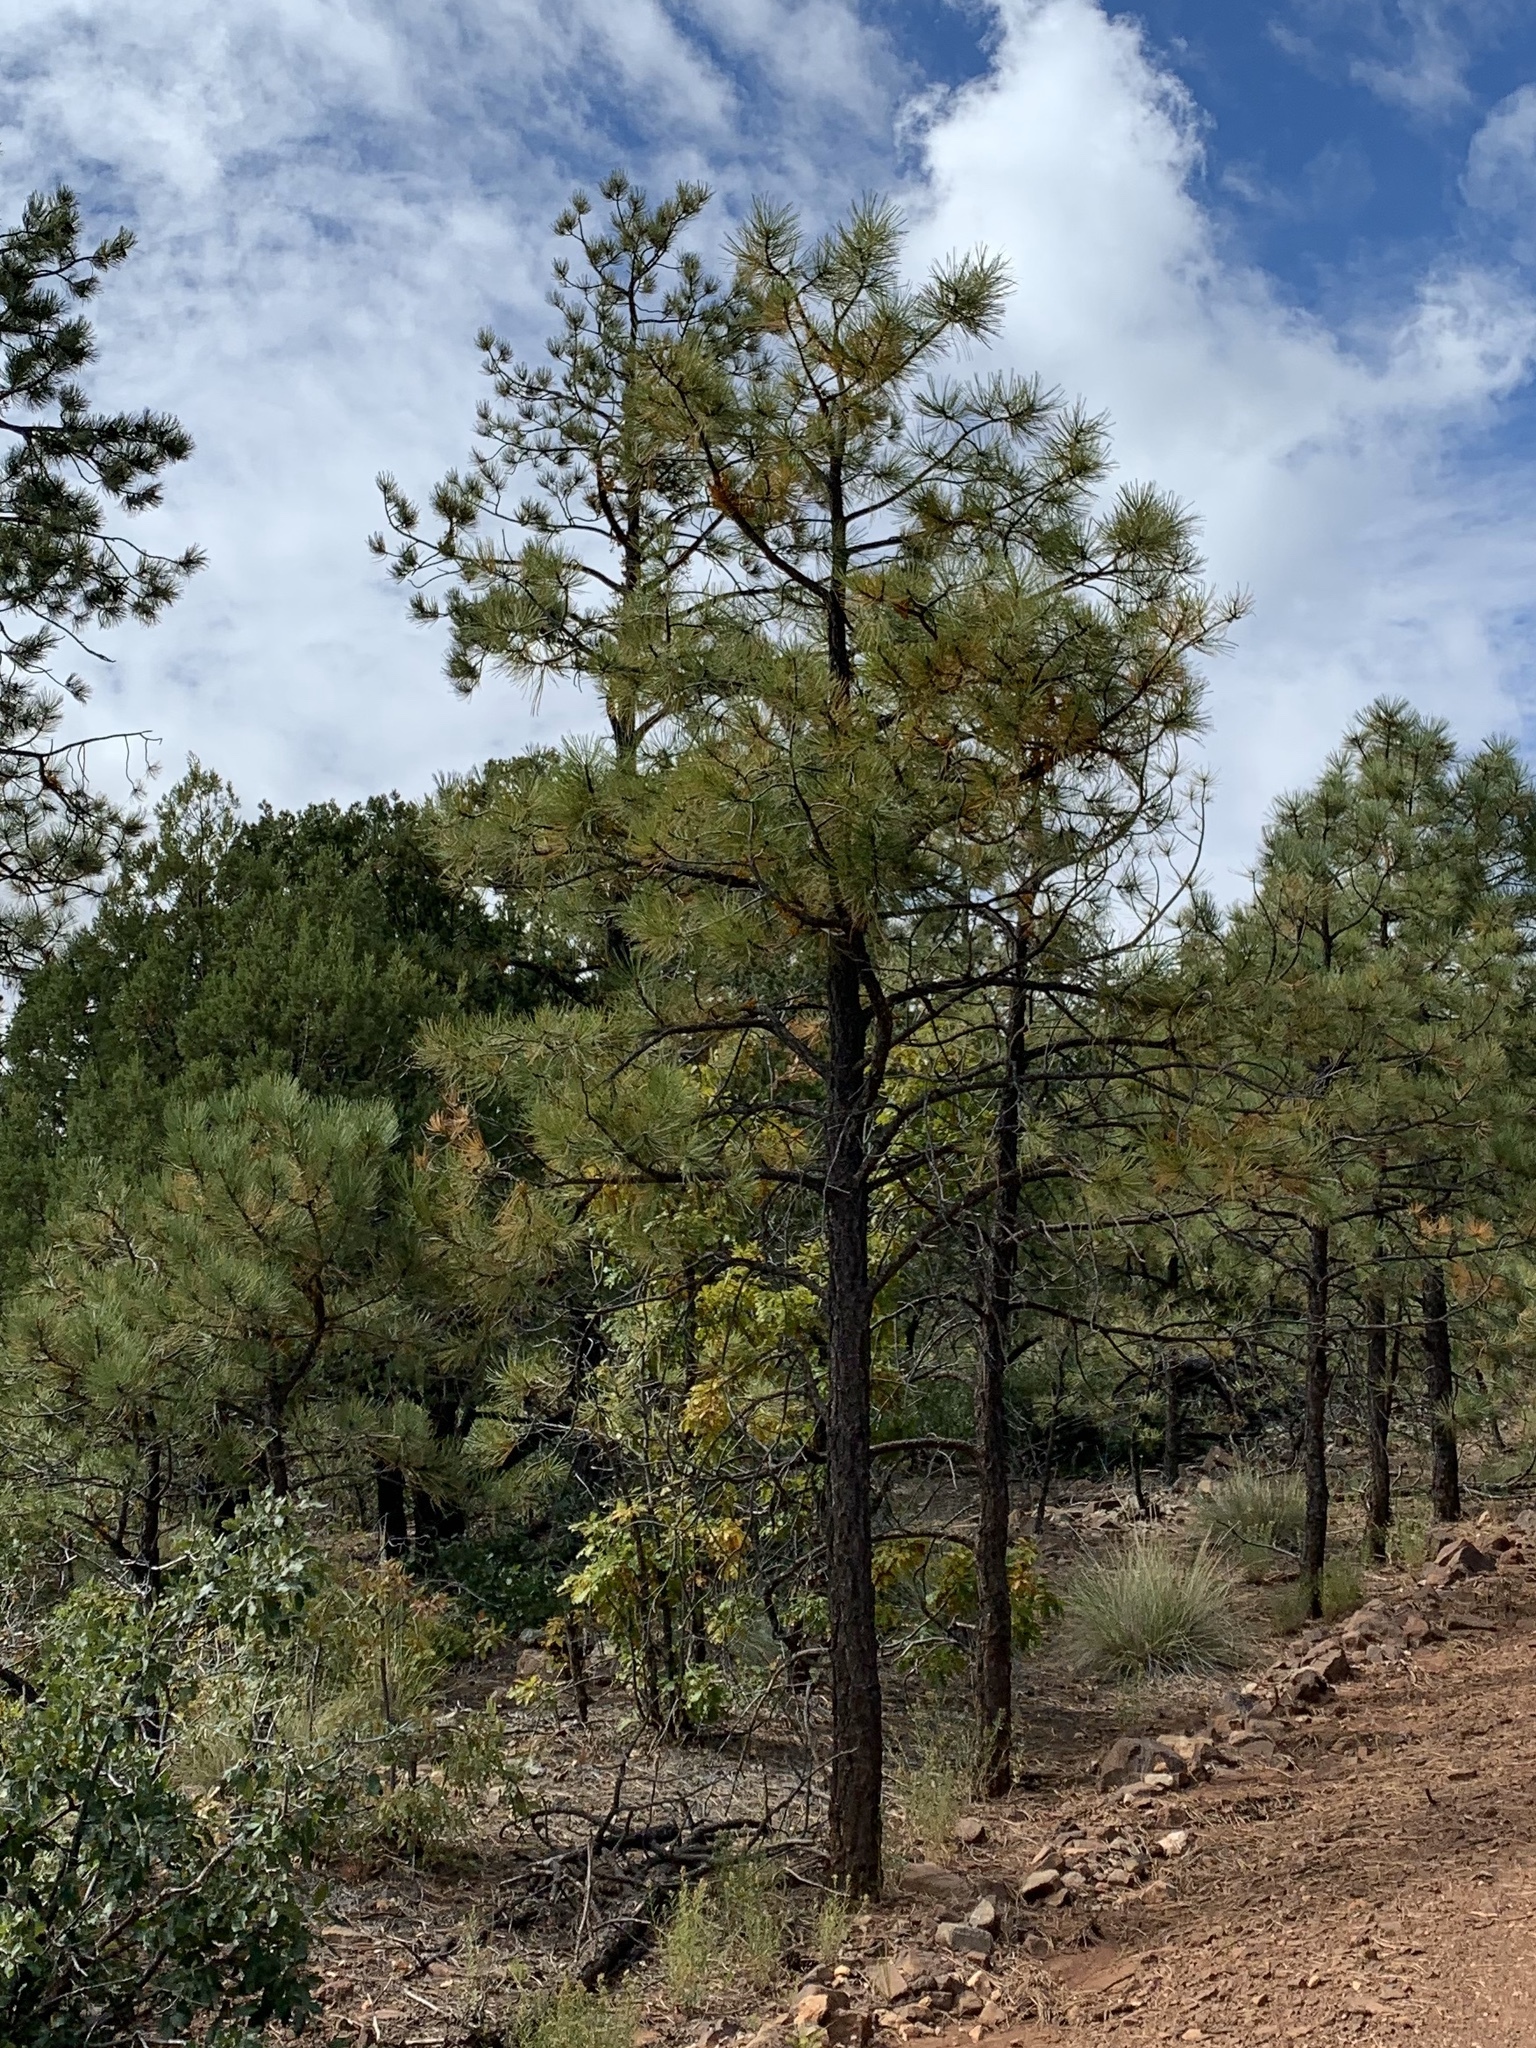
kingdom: Plantae
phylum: Tracheophyta
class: Pinopsida
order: Pinales
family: Pinaceae
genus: Pinus
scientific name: Pinus ponderosa
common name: Western yellow-pine
